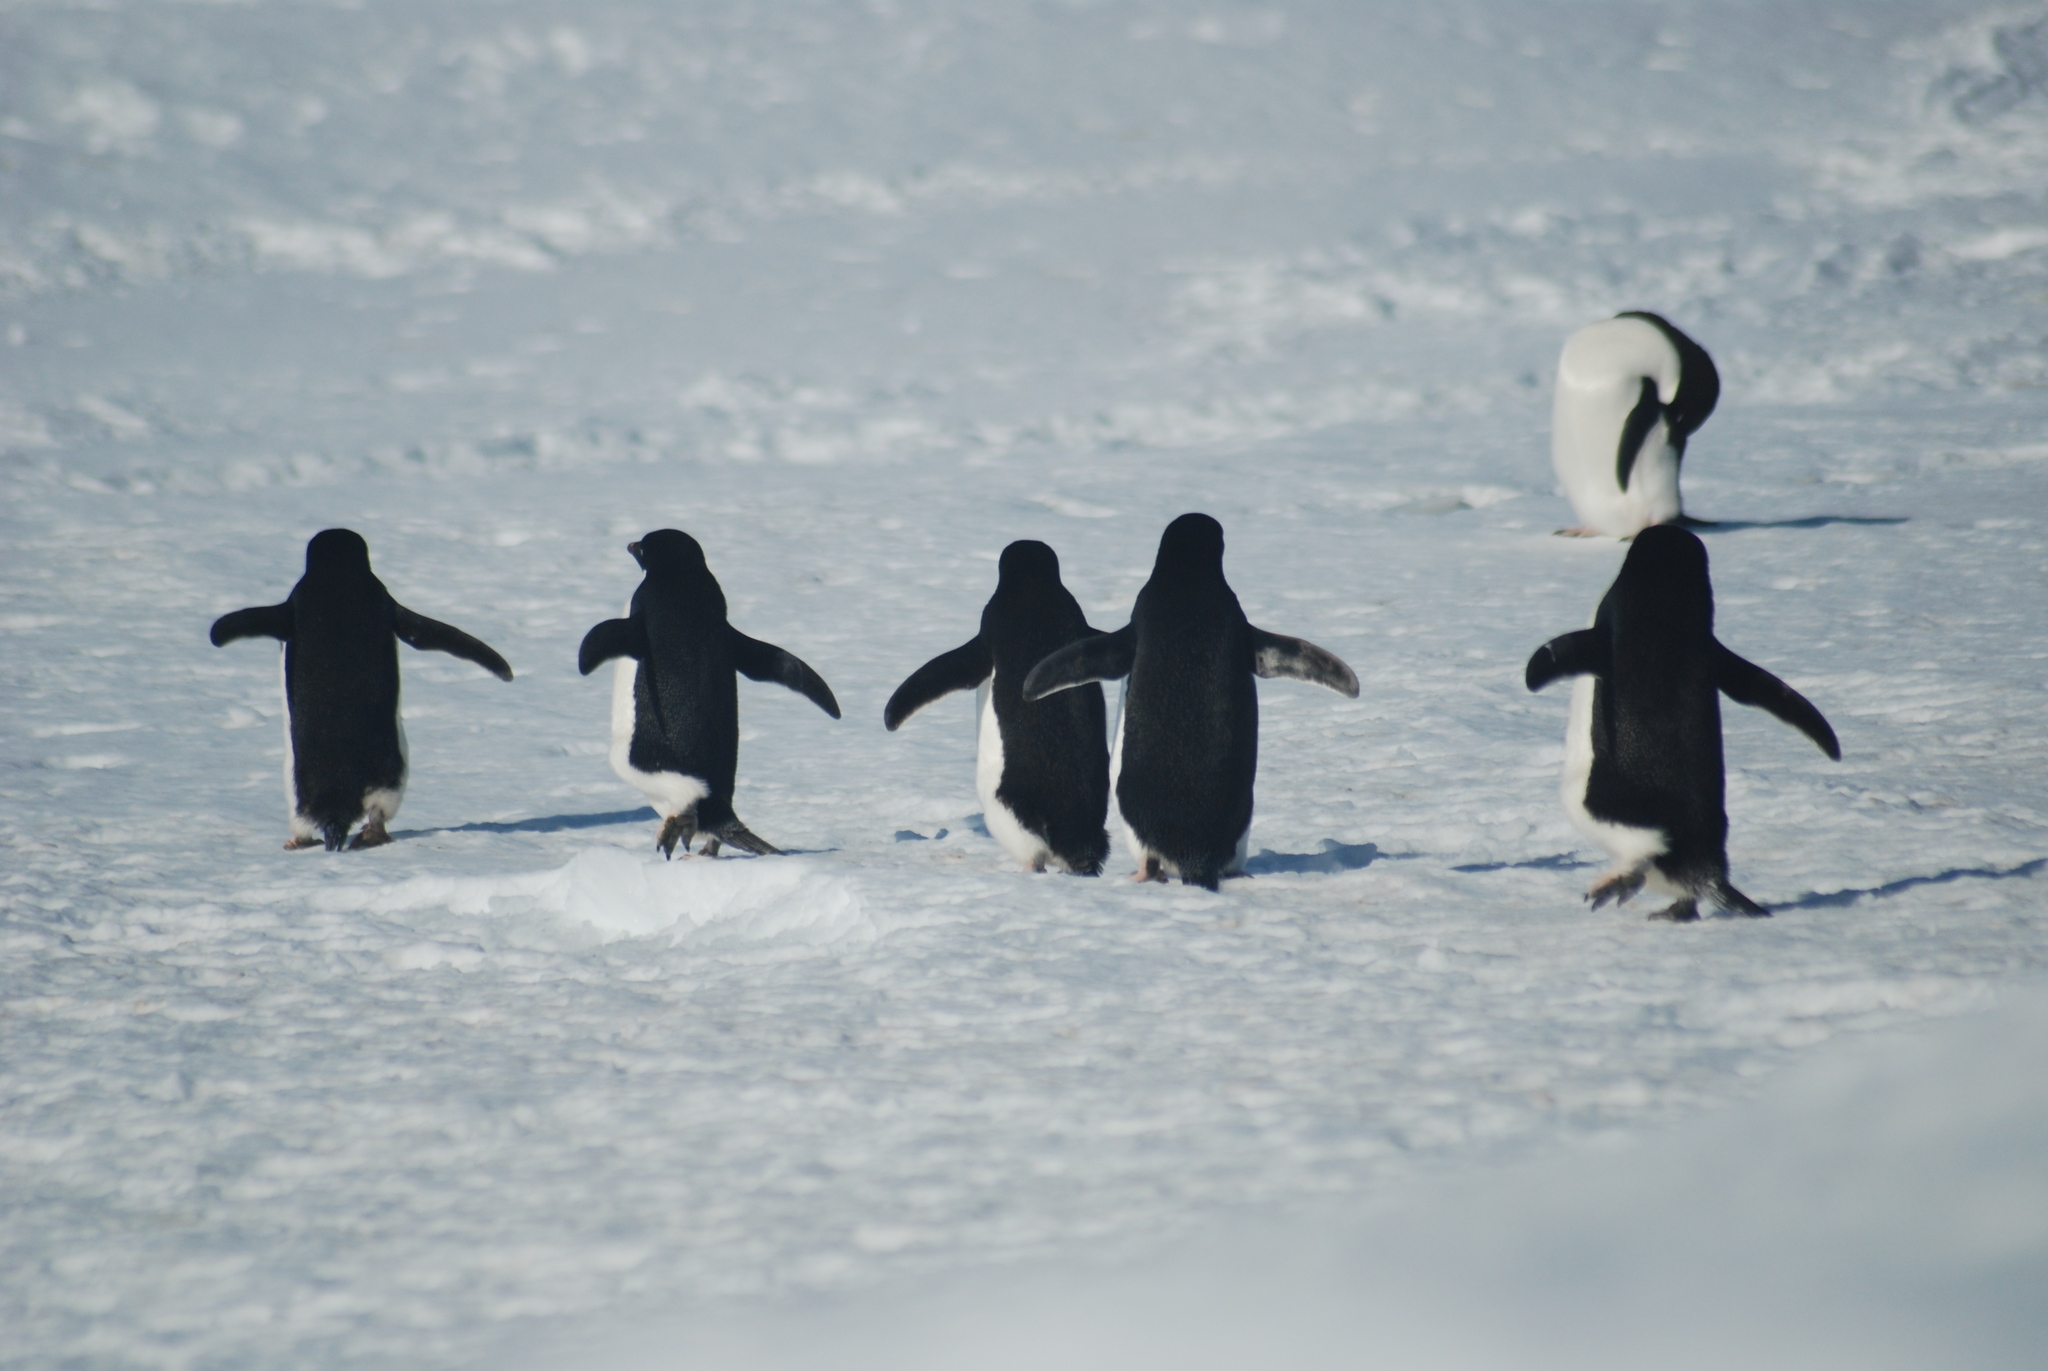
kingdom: Animalia
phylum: Chordata
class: Aves
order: Sphenisciformes
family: Spheniscidae
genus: Pygoscelis
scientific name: Pygoscelis adeliae
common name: Adelie penguin
